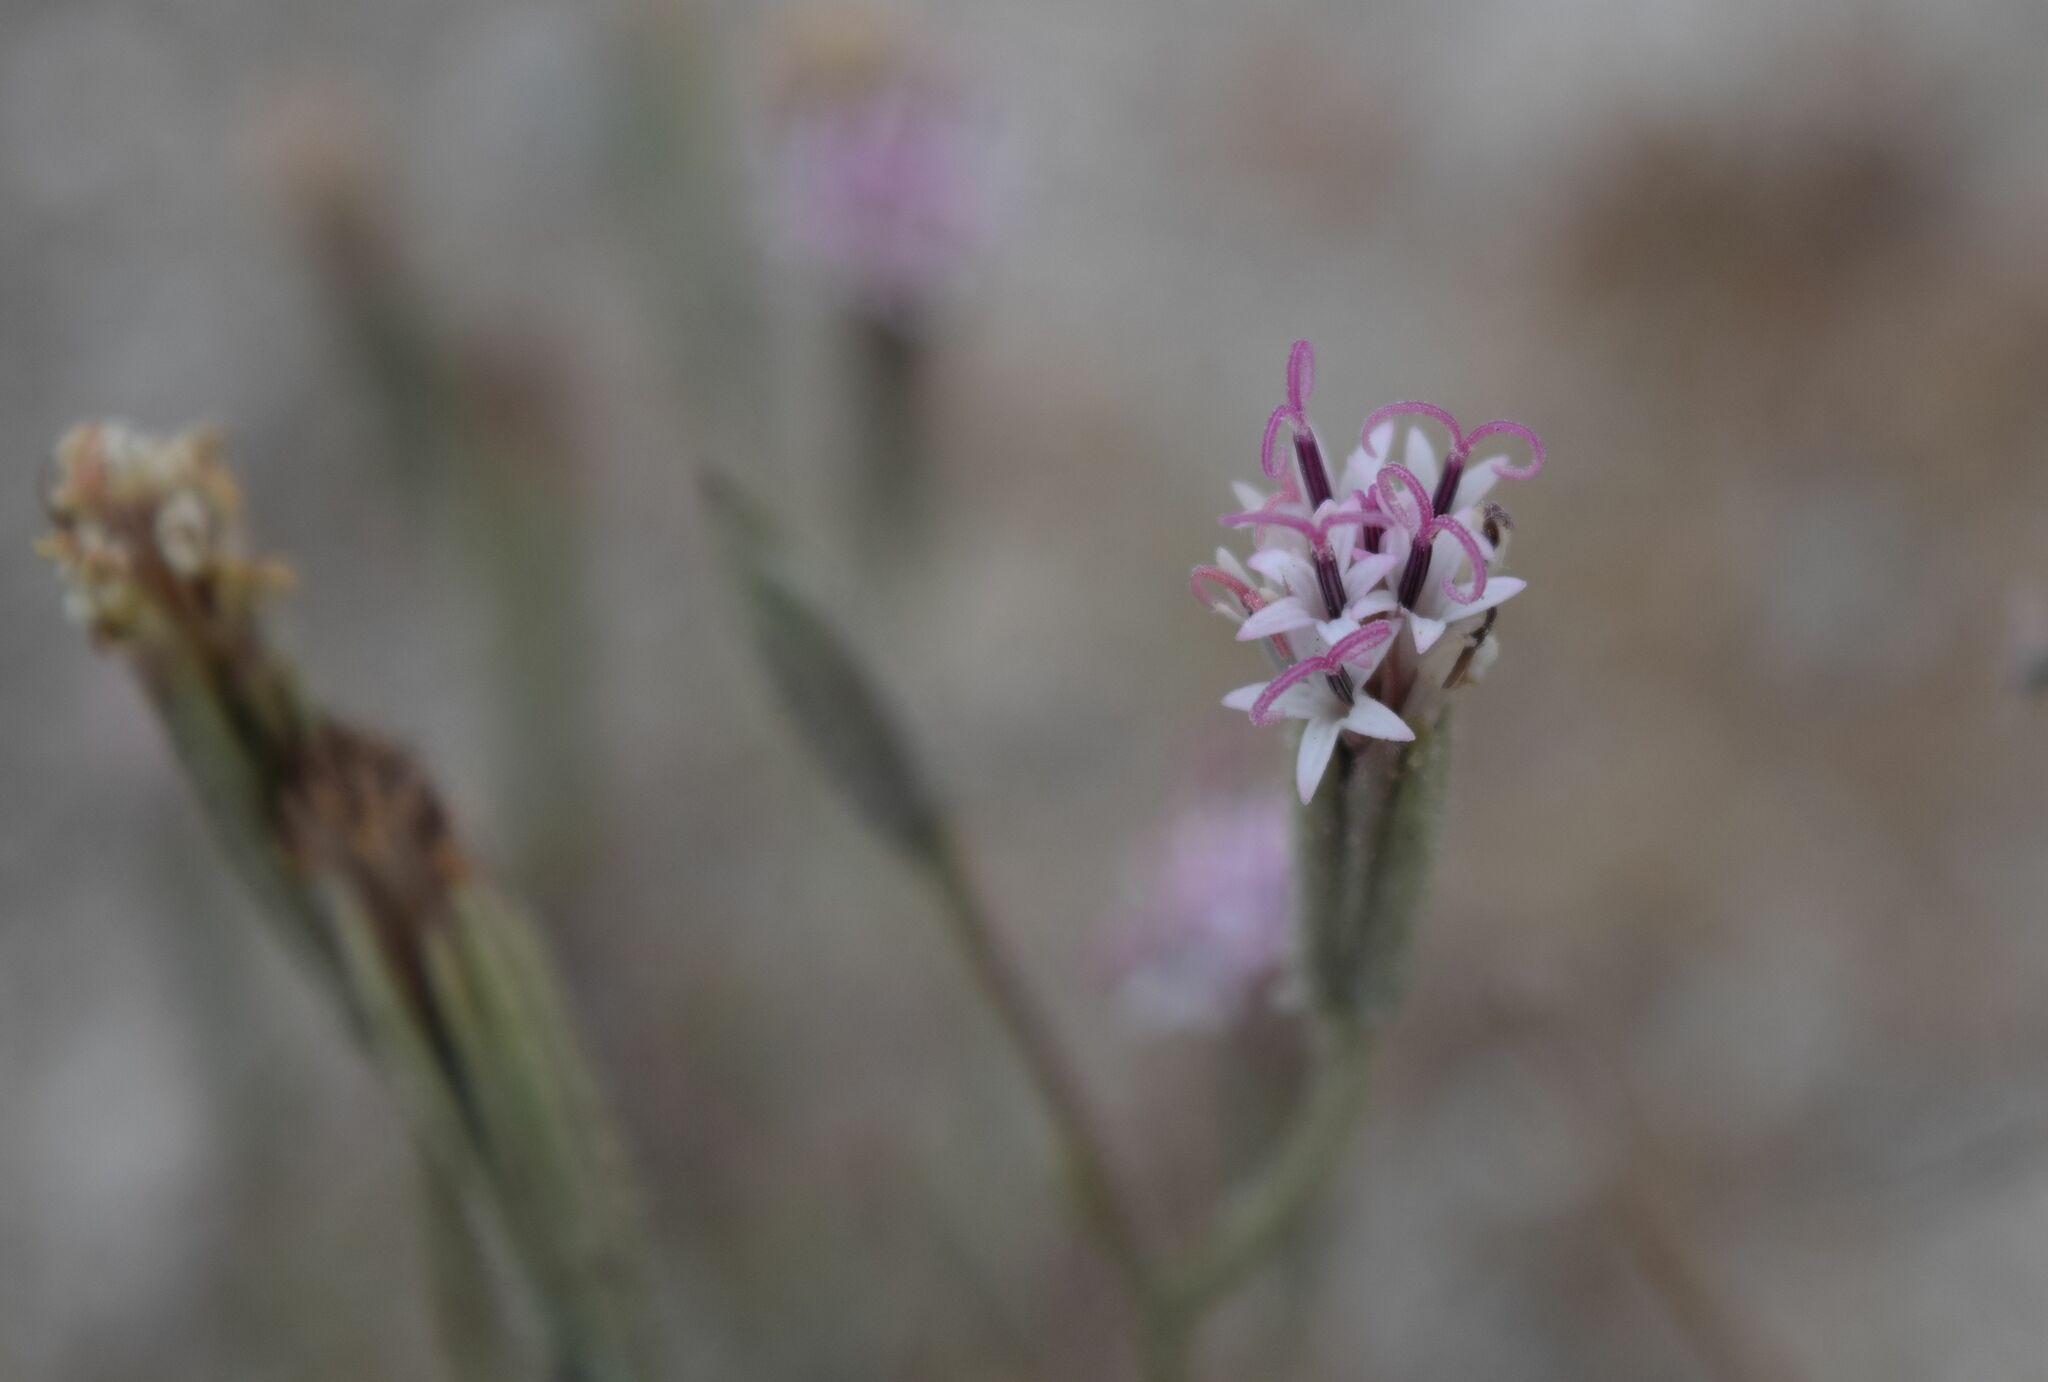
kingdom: Plantae
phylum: Tracheophyta
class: Magnoliopsida
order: Asterales
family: Asteraceae
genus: Palafoxia
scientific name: Palafoxia arida
